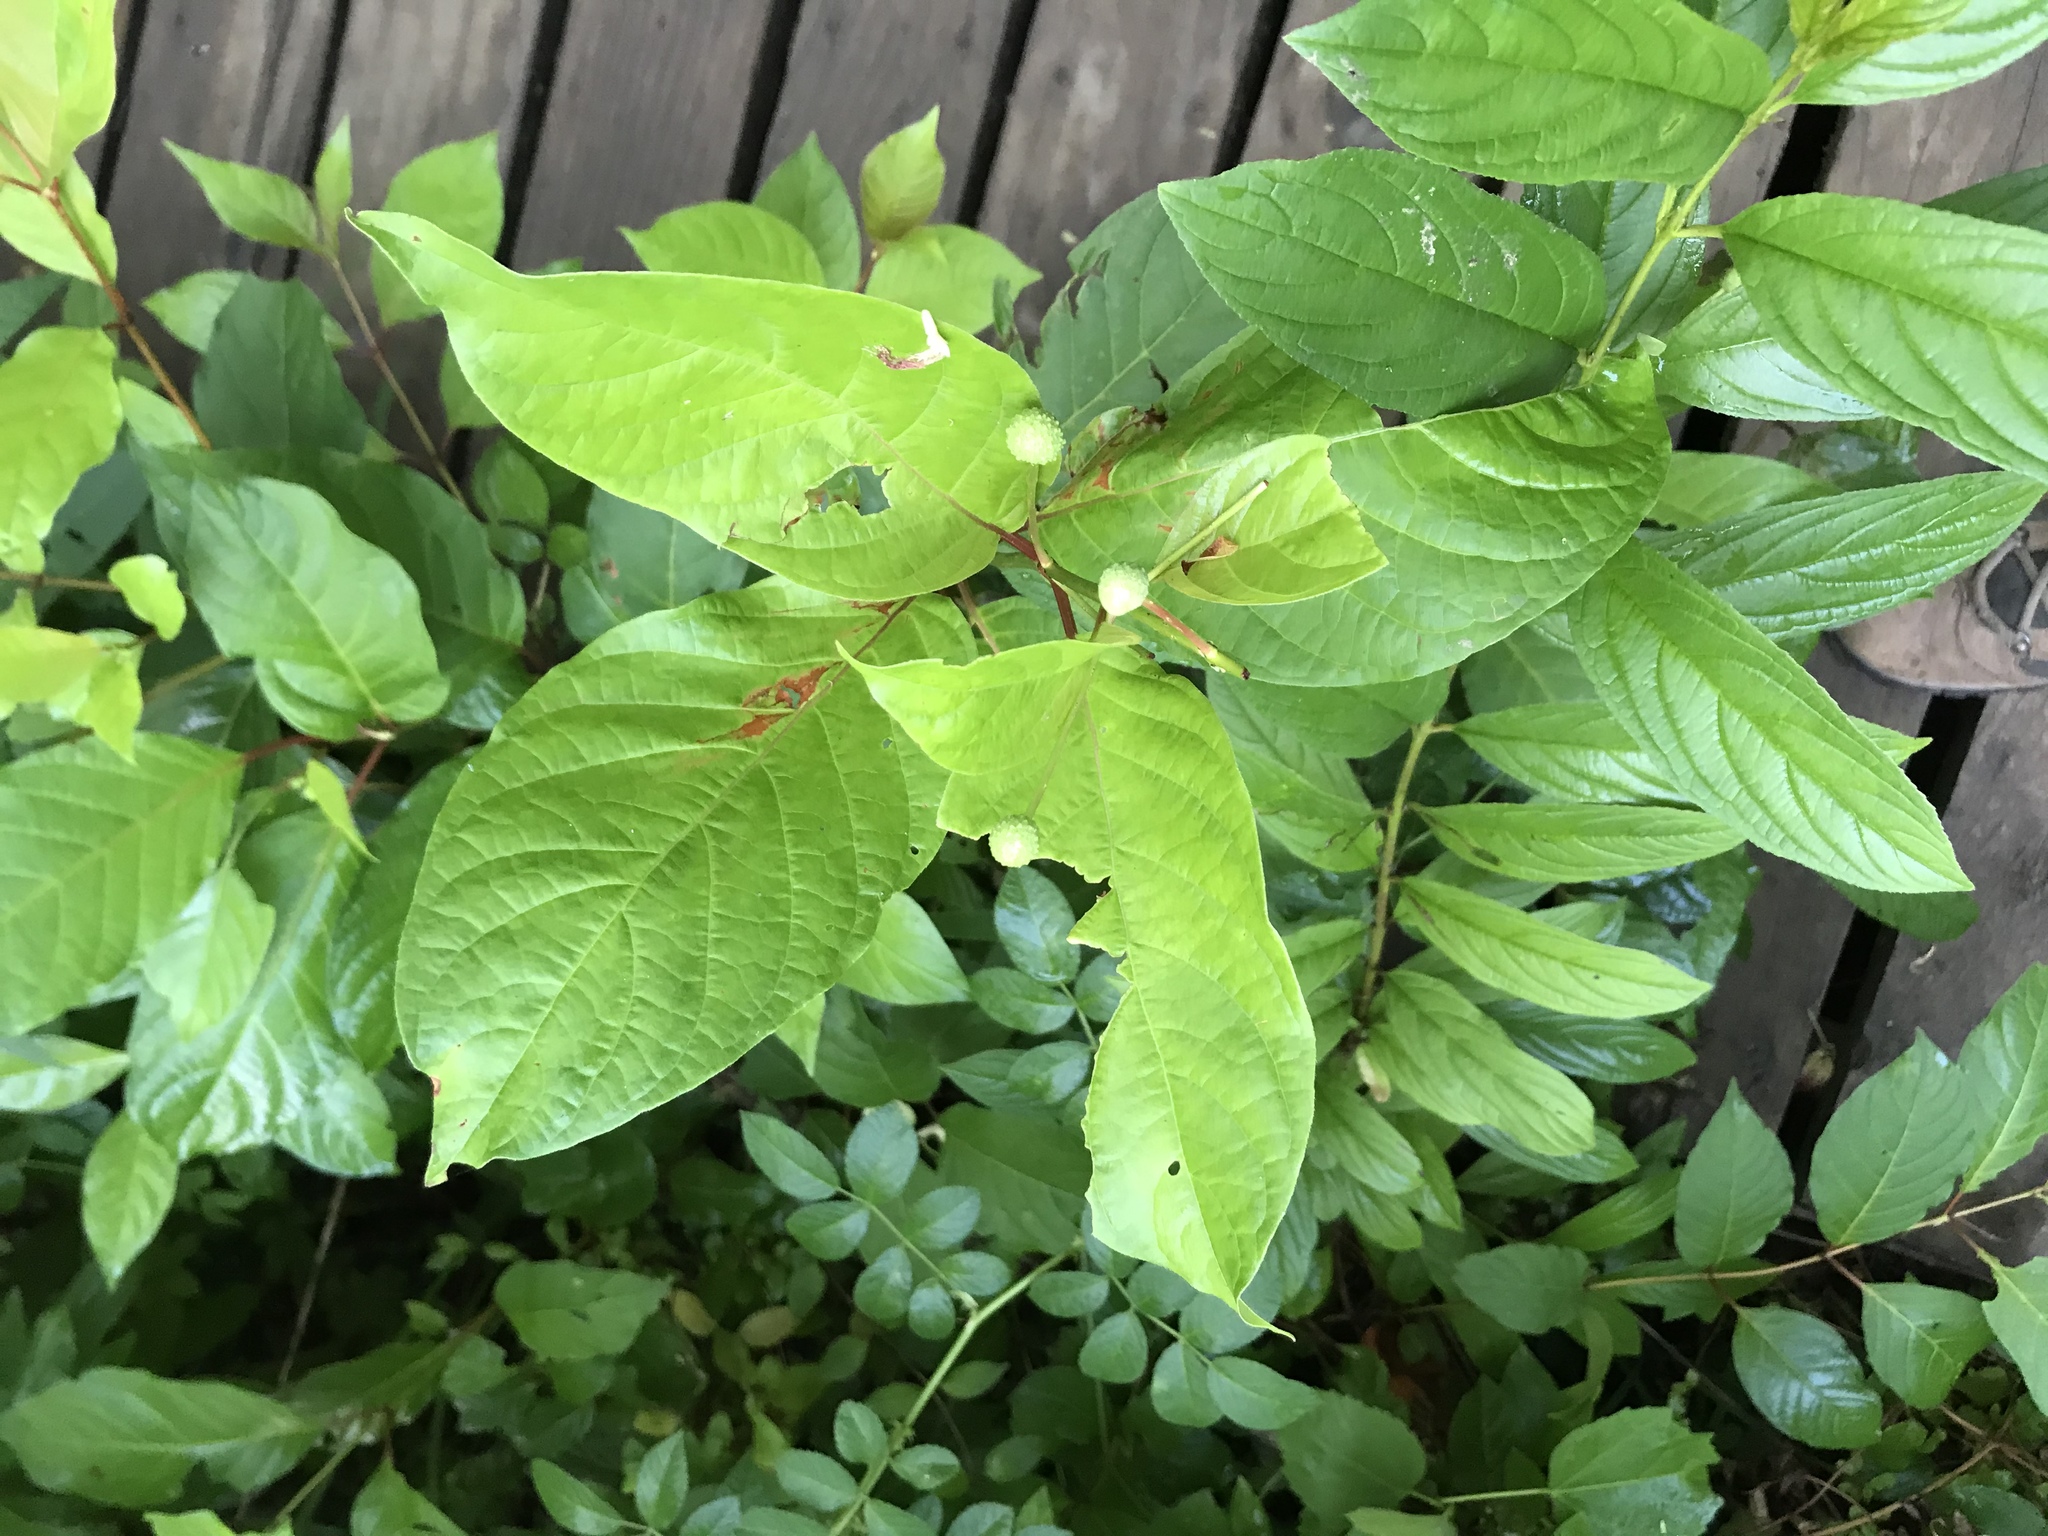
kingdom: Plantae
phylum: Tracheophyta
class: Magnoliopsida
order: Gentianales
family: Rubiaceae
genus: Cephalanthus
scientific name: Cephalanthus occidentalis
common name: Button-willow
